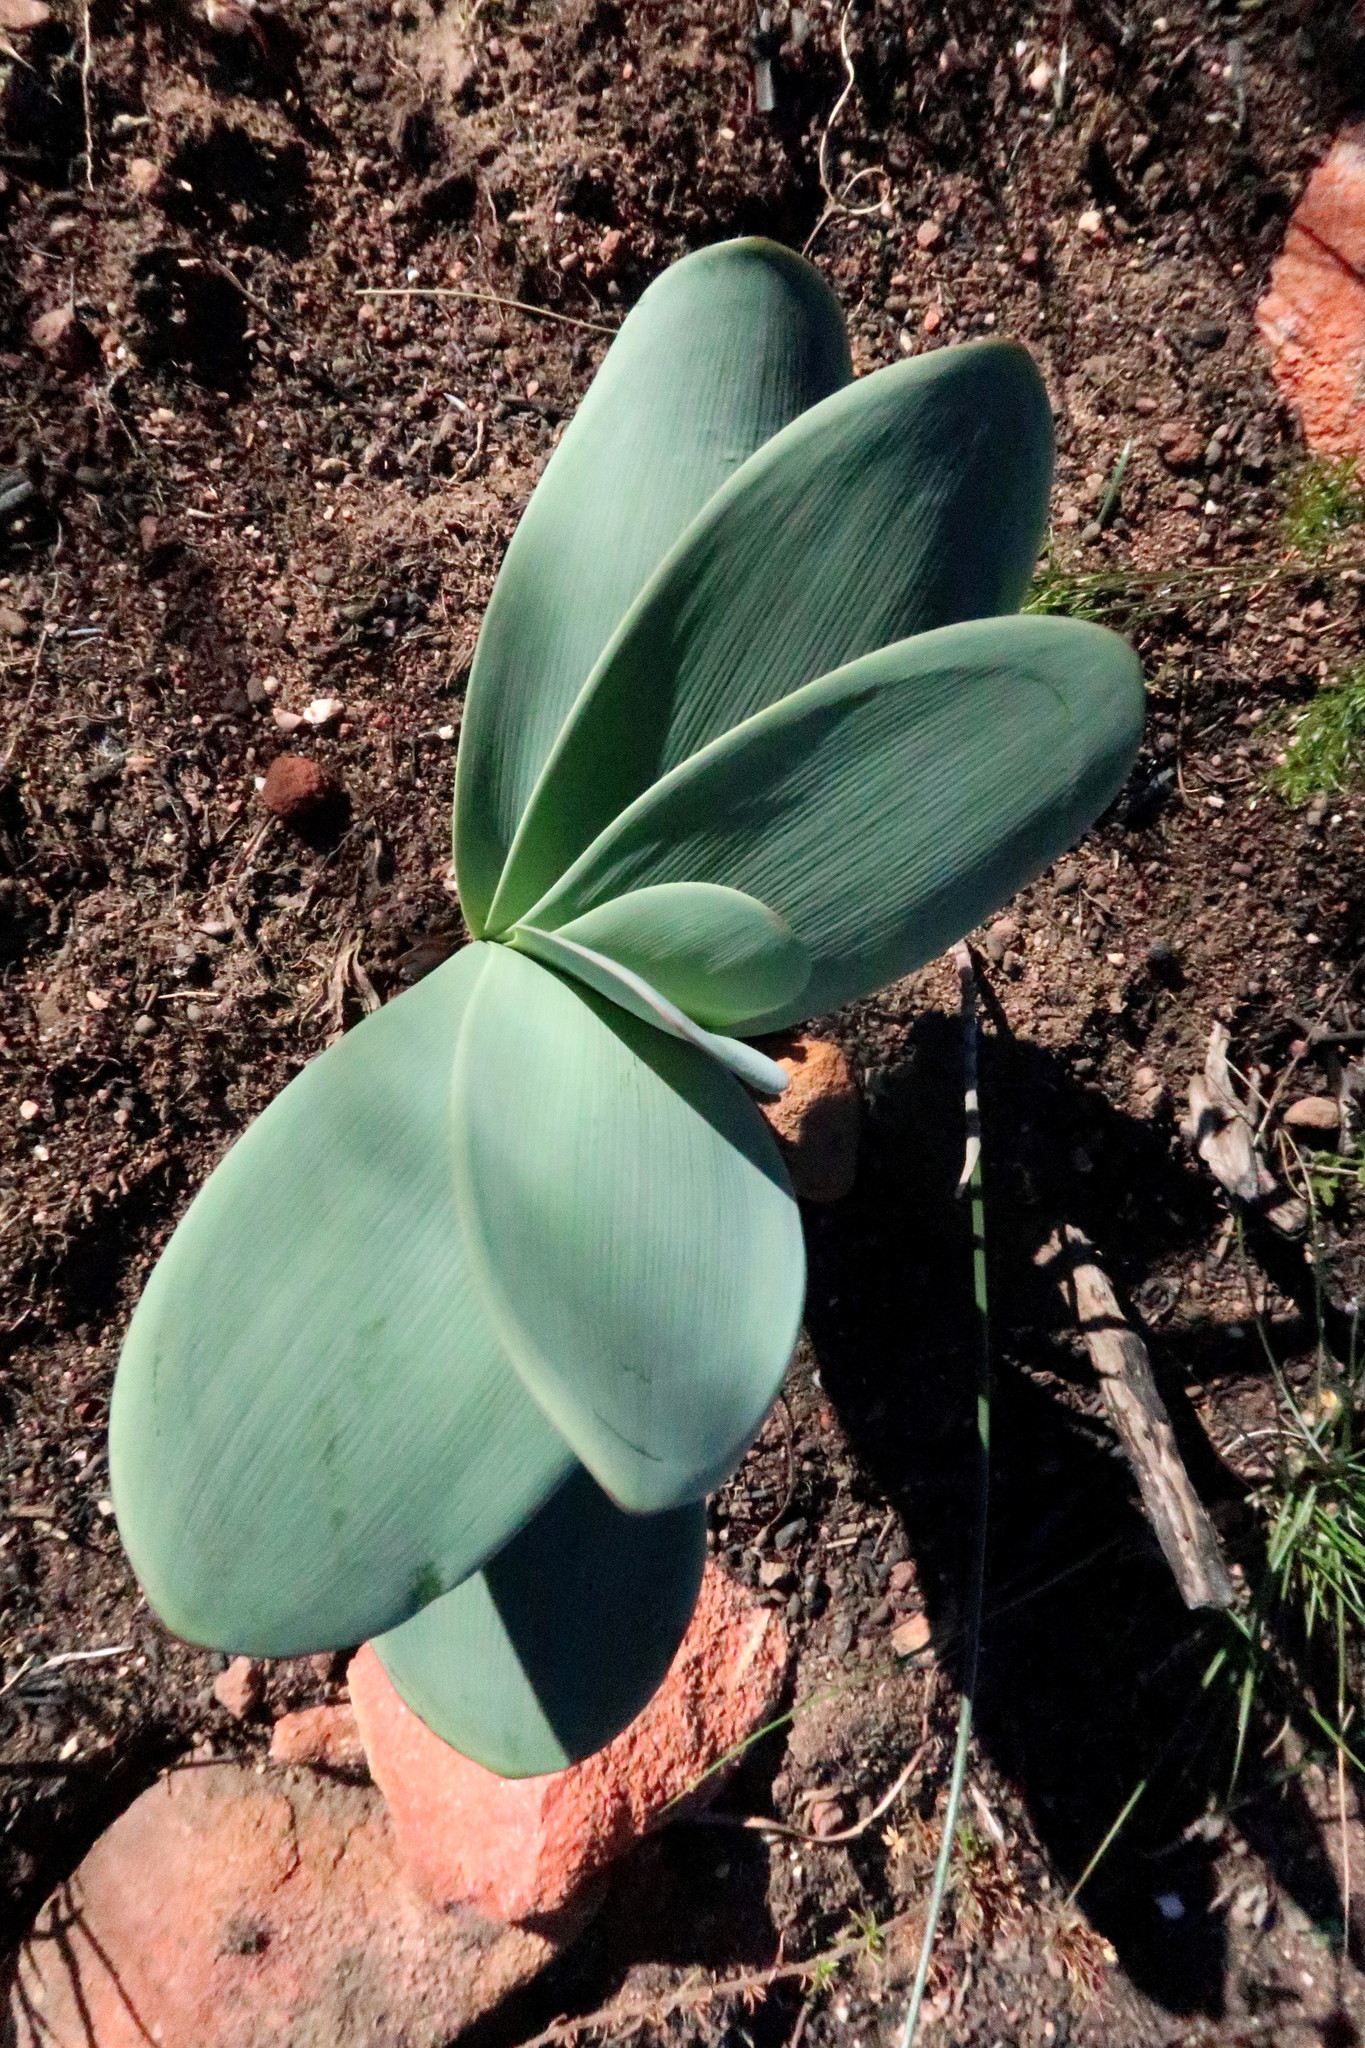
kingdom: Plantae
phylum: Tracheophyta
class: Liliopsida
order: Asparagales
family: Amaryllidaceae
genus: Brunsvigia
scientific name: Brunsvigia josephinae
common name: Josephine's-lily
